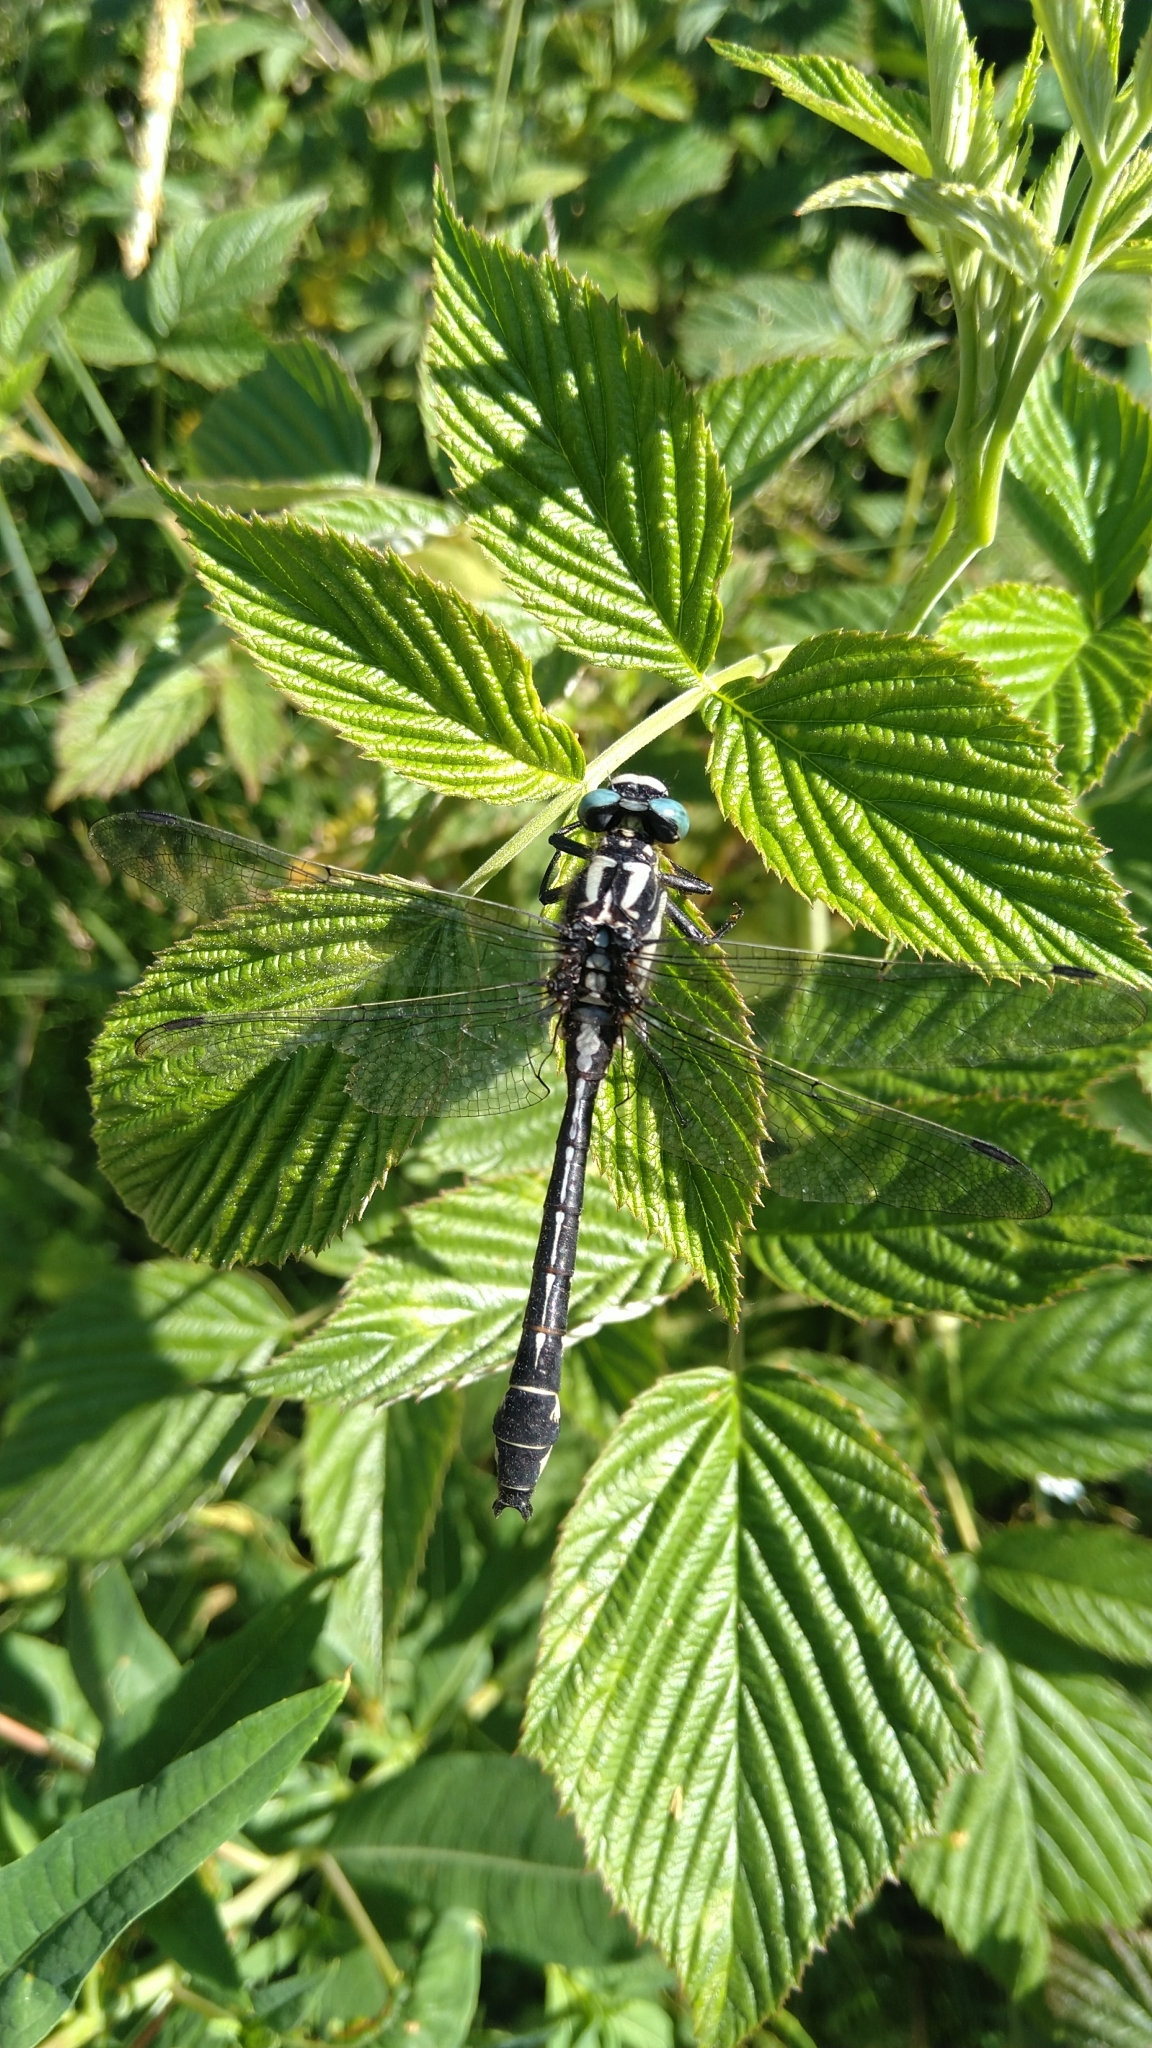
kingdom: Animalia
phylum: Arthropoda
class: Insecta
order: Odonata
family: Gomphidae
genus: Gomphus
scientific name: Gomphus vulgatissimus
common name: Club-tailed dragonfly
